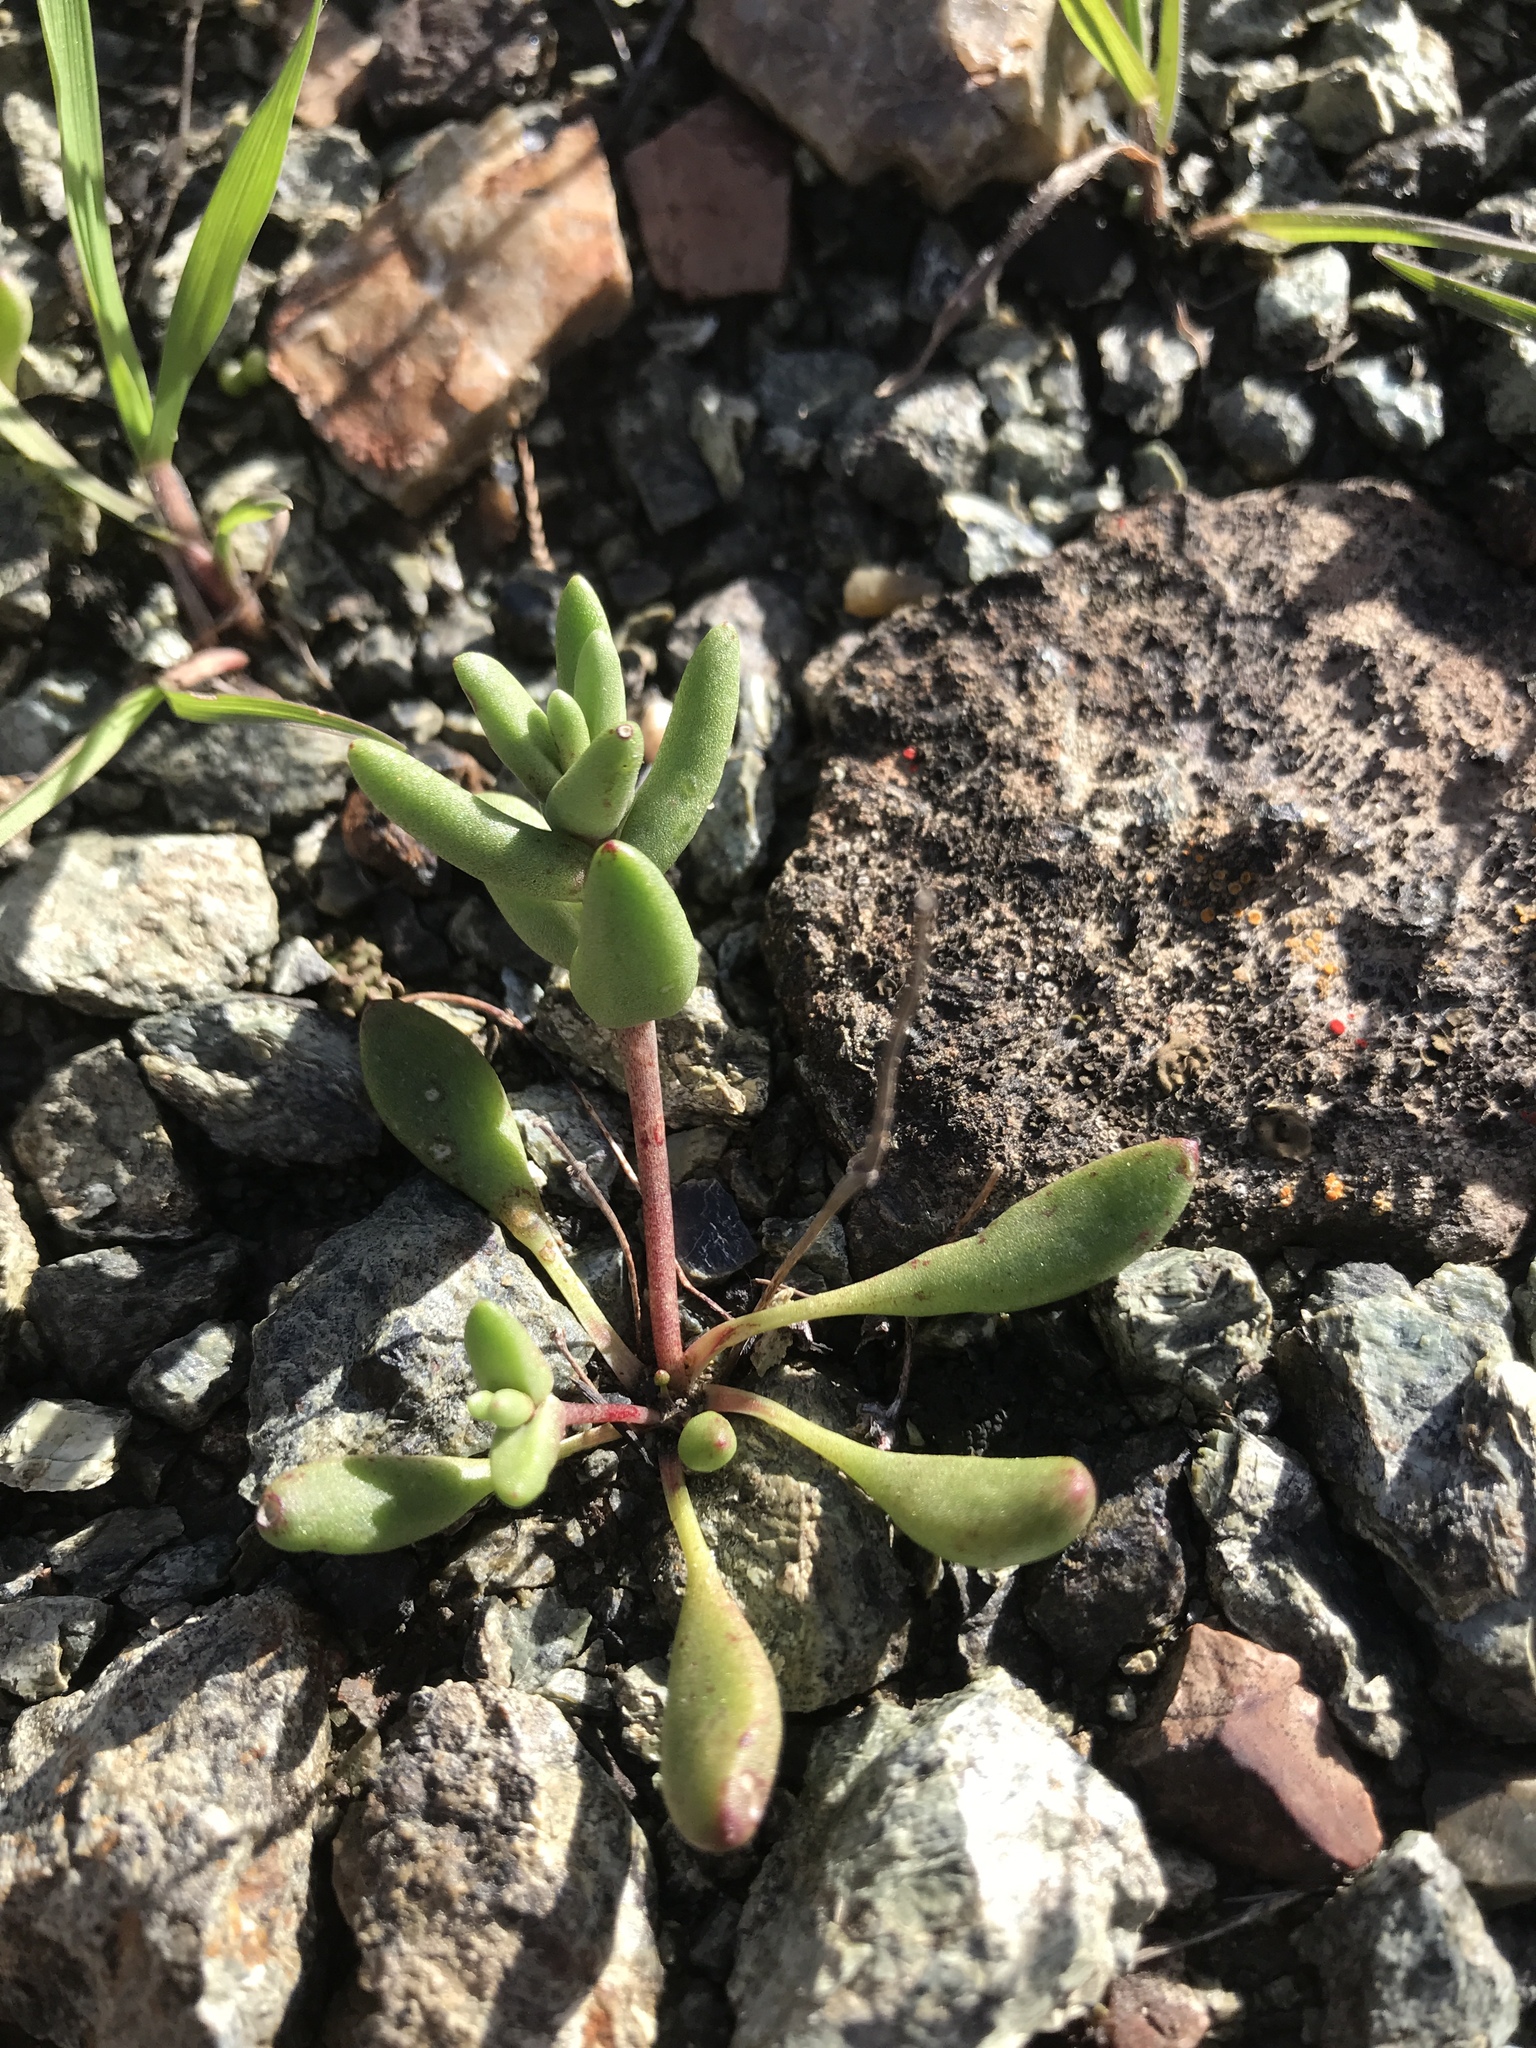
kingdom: Plantae
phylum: Tracheophyta
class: Magnoliopsida
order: Saxifragales
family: Crassulaceae
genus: Dudleya
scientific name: Dudleya blochmaniae
